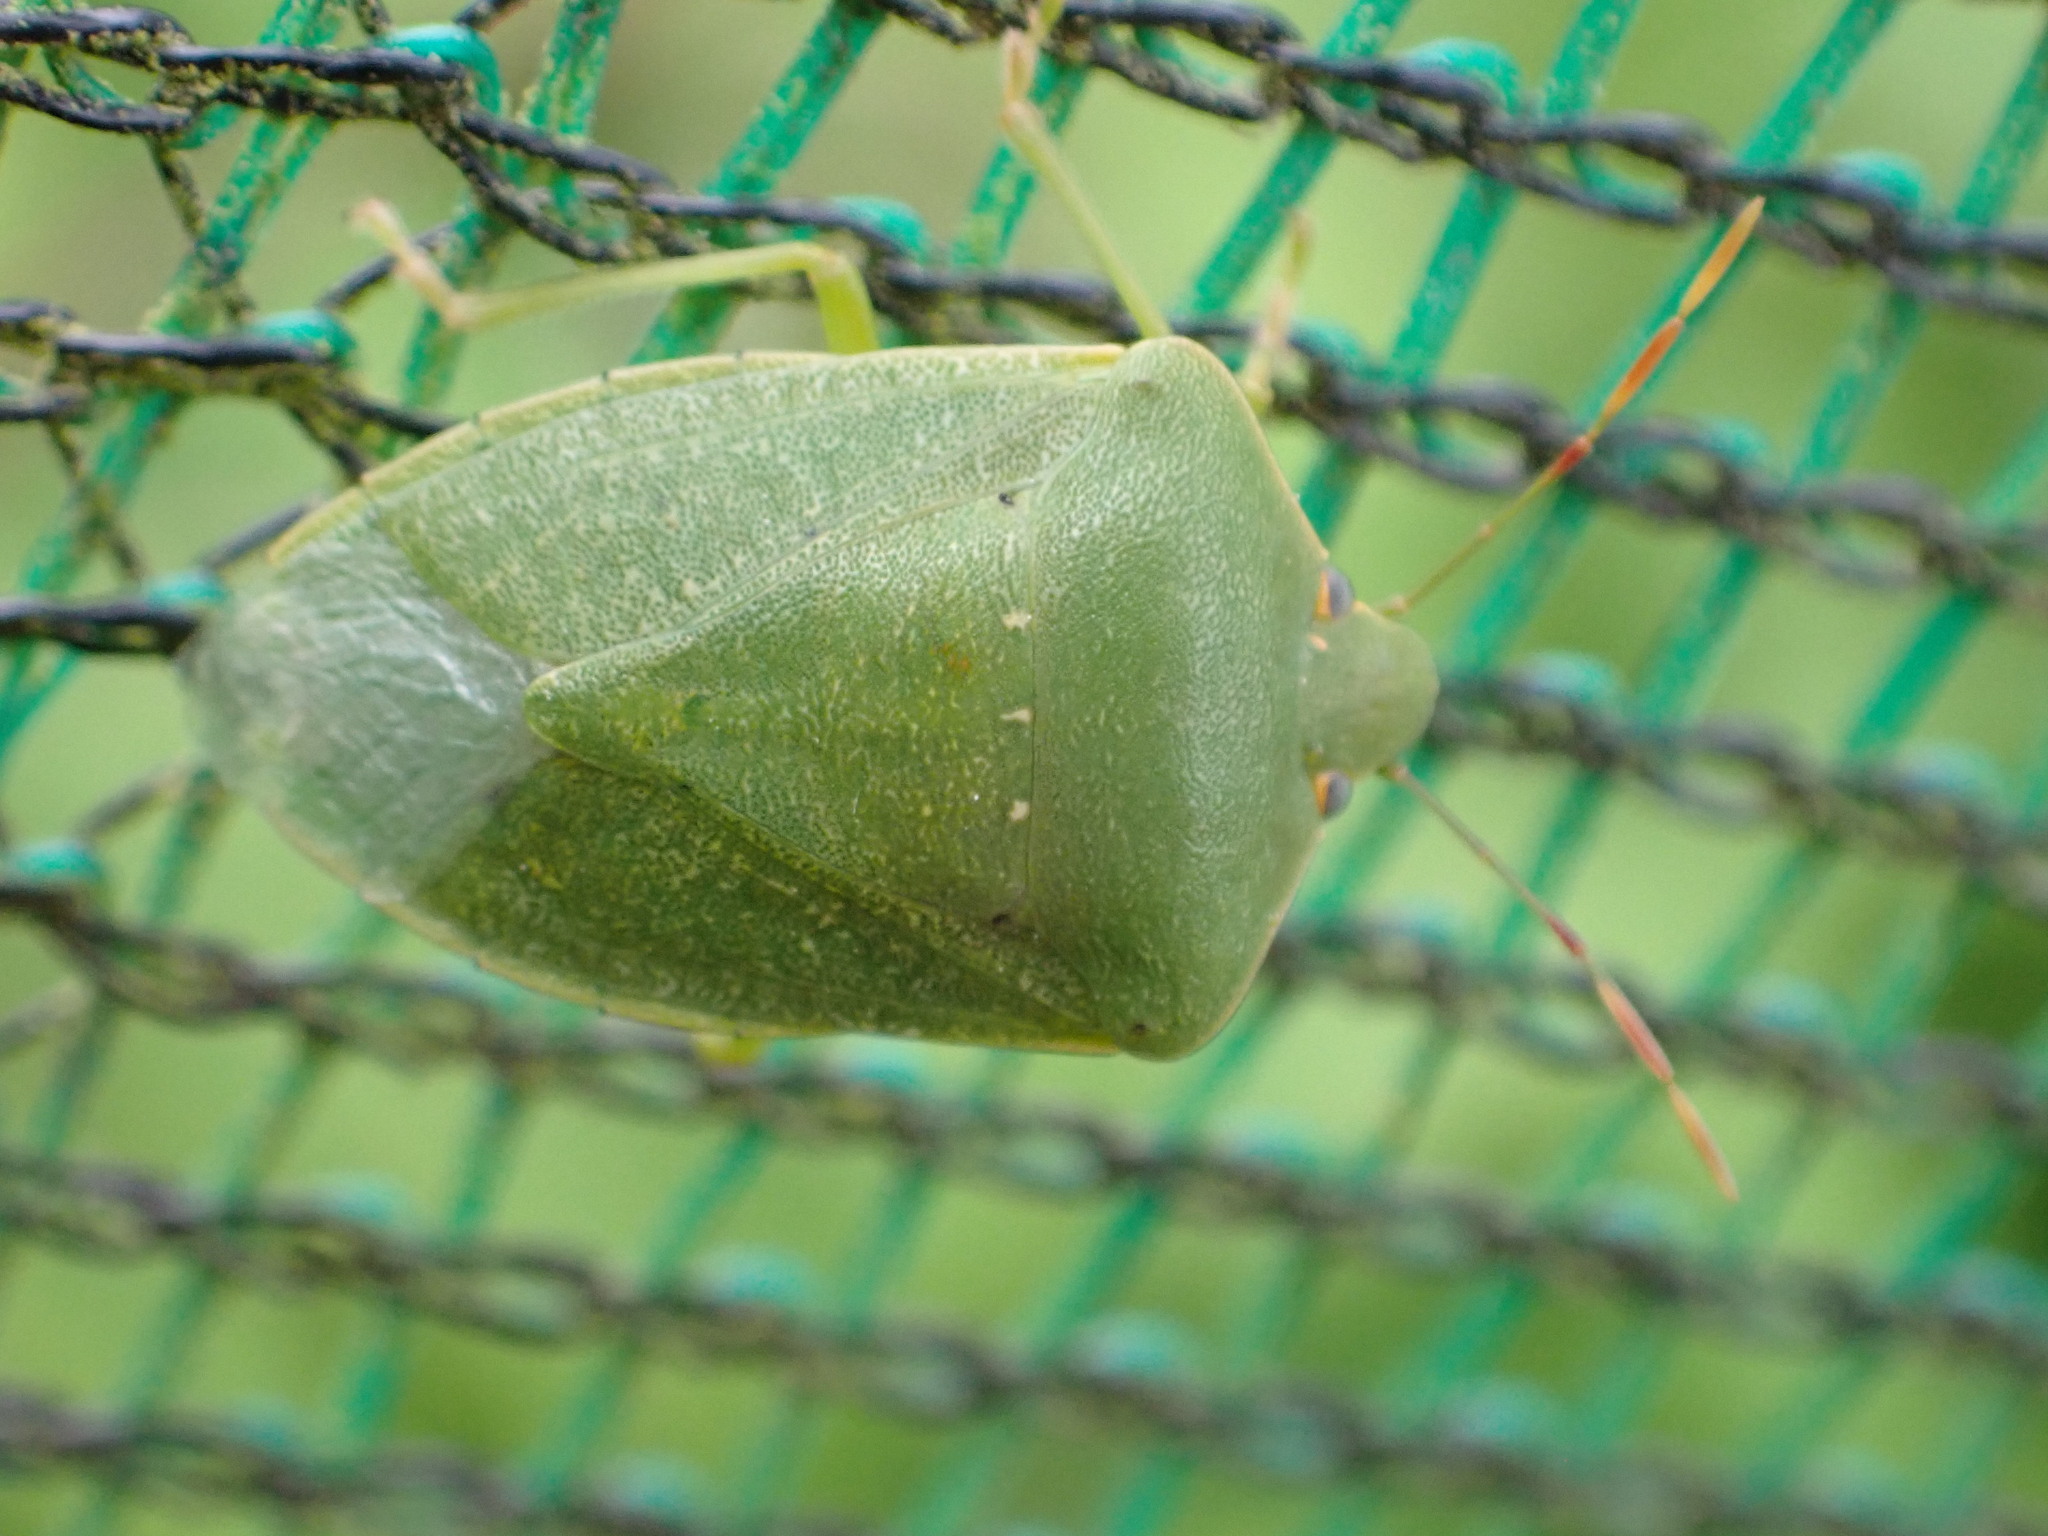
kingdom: Animalia
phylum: Arthropoda
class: Insecta
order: Hemiptera
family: Pentatomidae
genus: Nezara
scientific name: Nezara viridula
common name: Southern green stink bug
